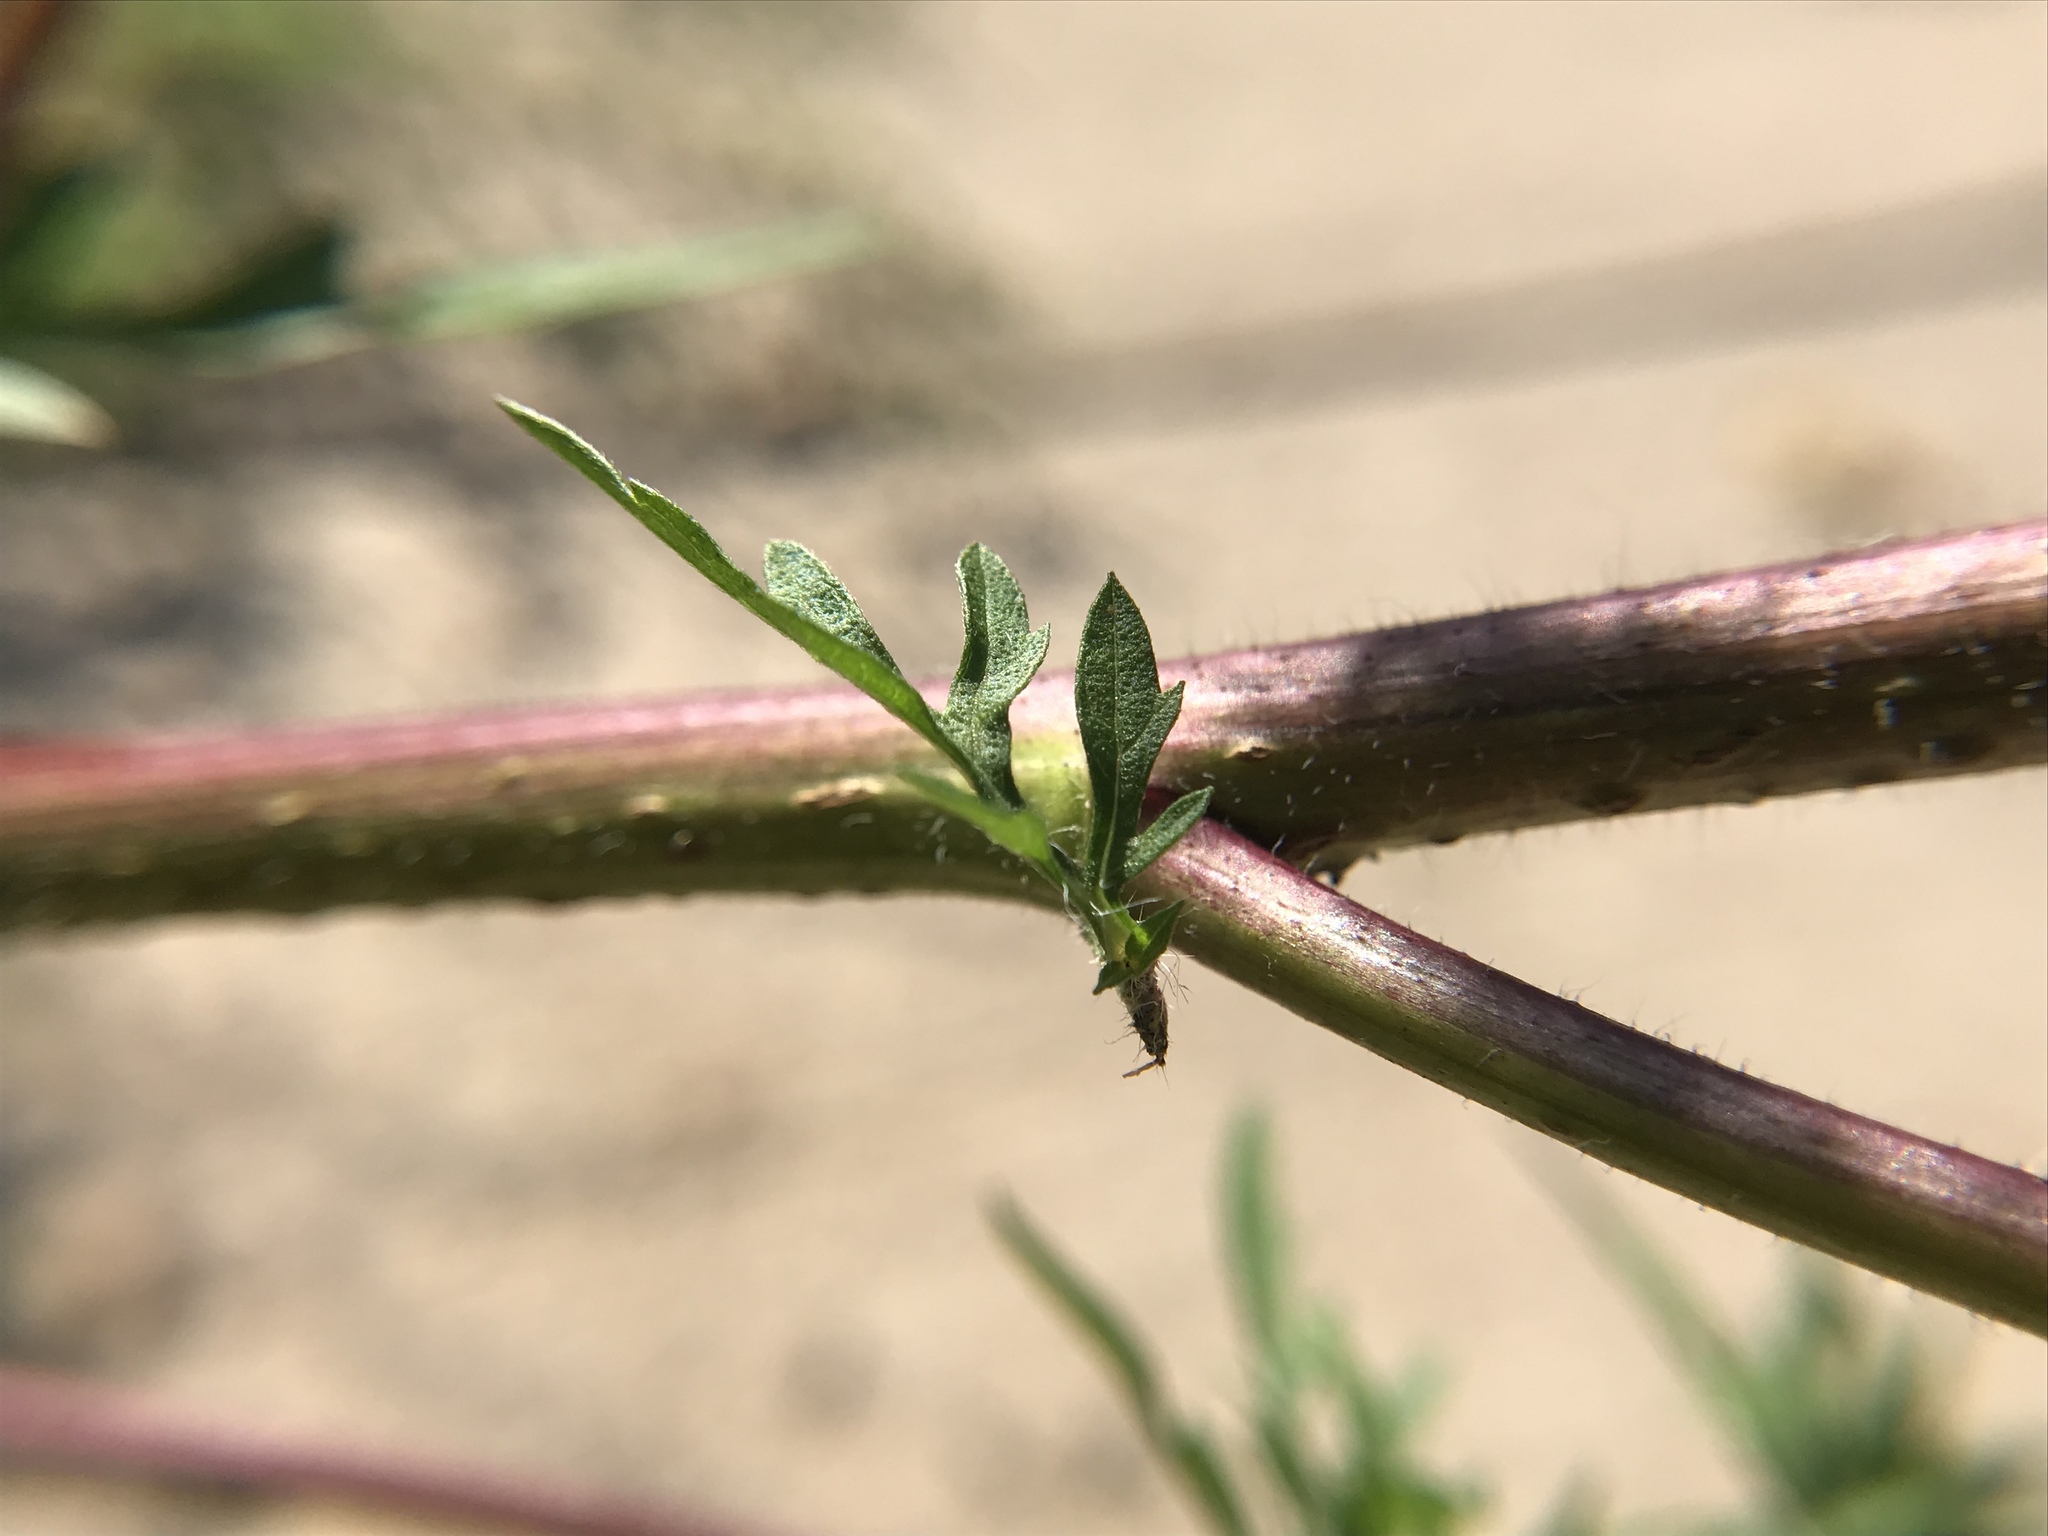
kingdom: Plantae
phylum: Tracheophyta
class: Magnoliopsida
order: Asterales
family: Asteraceae
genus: Ambrosia
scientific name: Ambrosia artemisiifolia
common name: Annual ragweed
